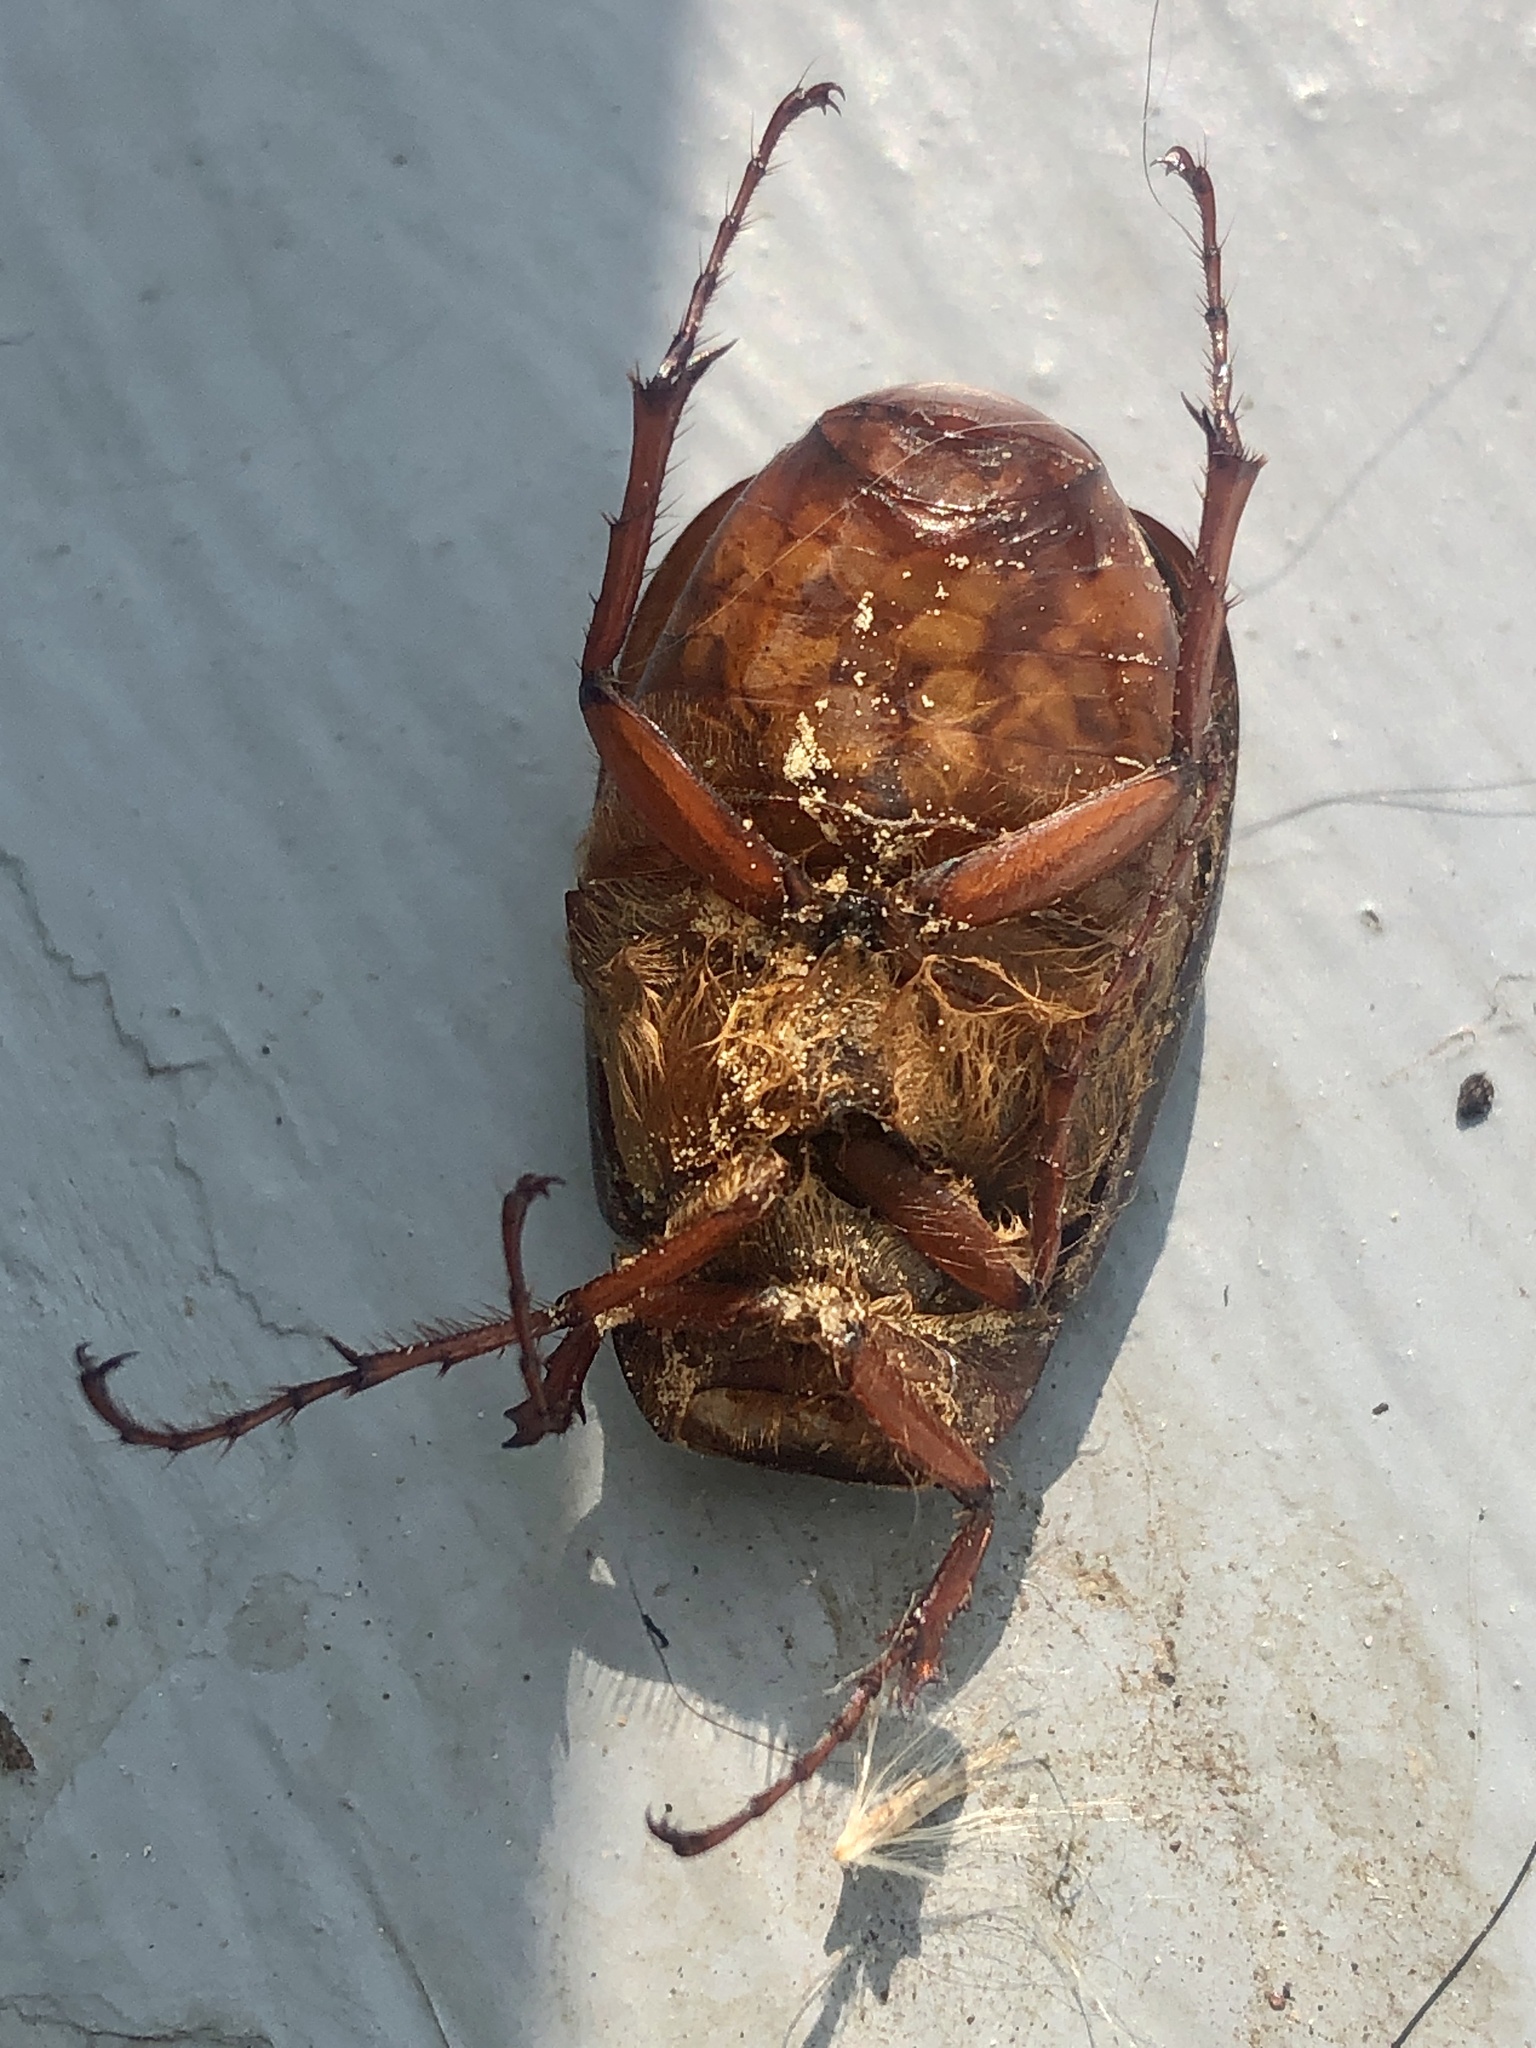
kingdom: Animalia
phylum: Arthropoda
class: Insecta
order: Coleoptera
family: Scarabaeidae
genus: Phyllophaga
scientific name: Phyllophaga anxia
